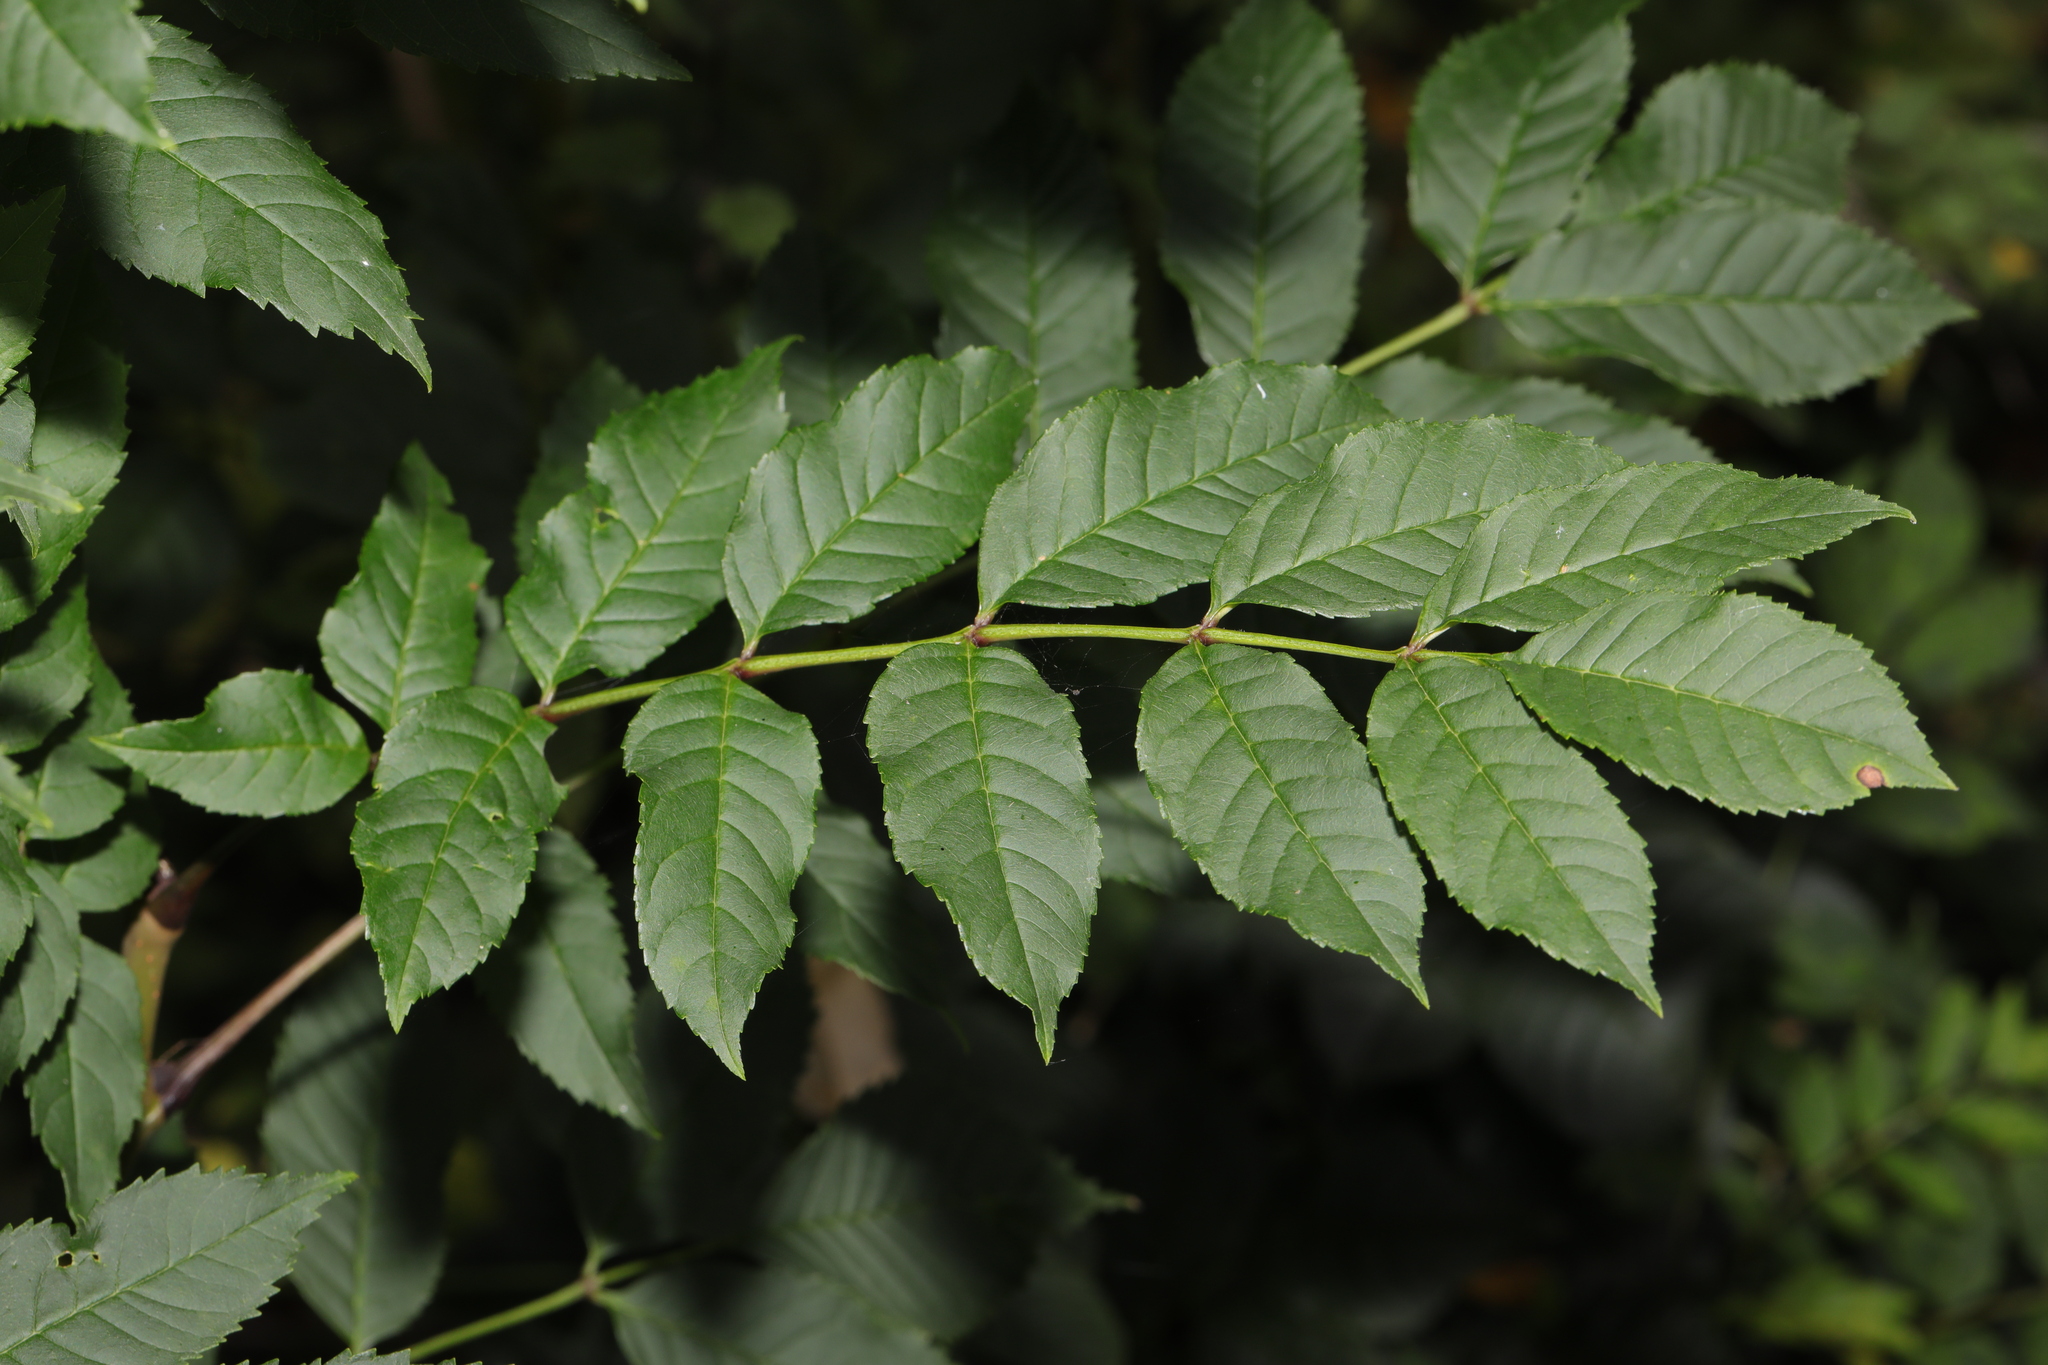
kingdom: Plantae
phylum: Tracheophyta
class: Magnoliopsida
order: Lamiales
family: Oleaceae
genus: Fraxinus
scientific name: Fraxinus excelsior
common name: European ash
